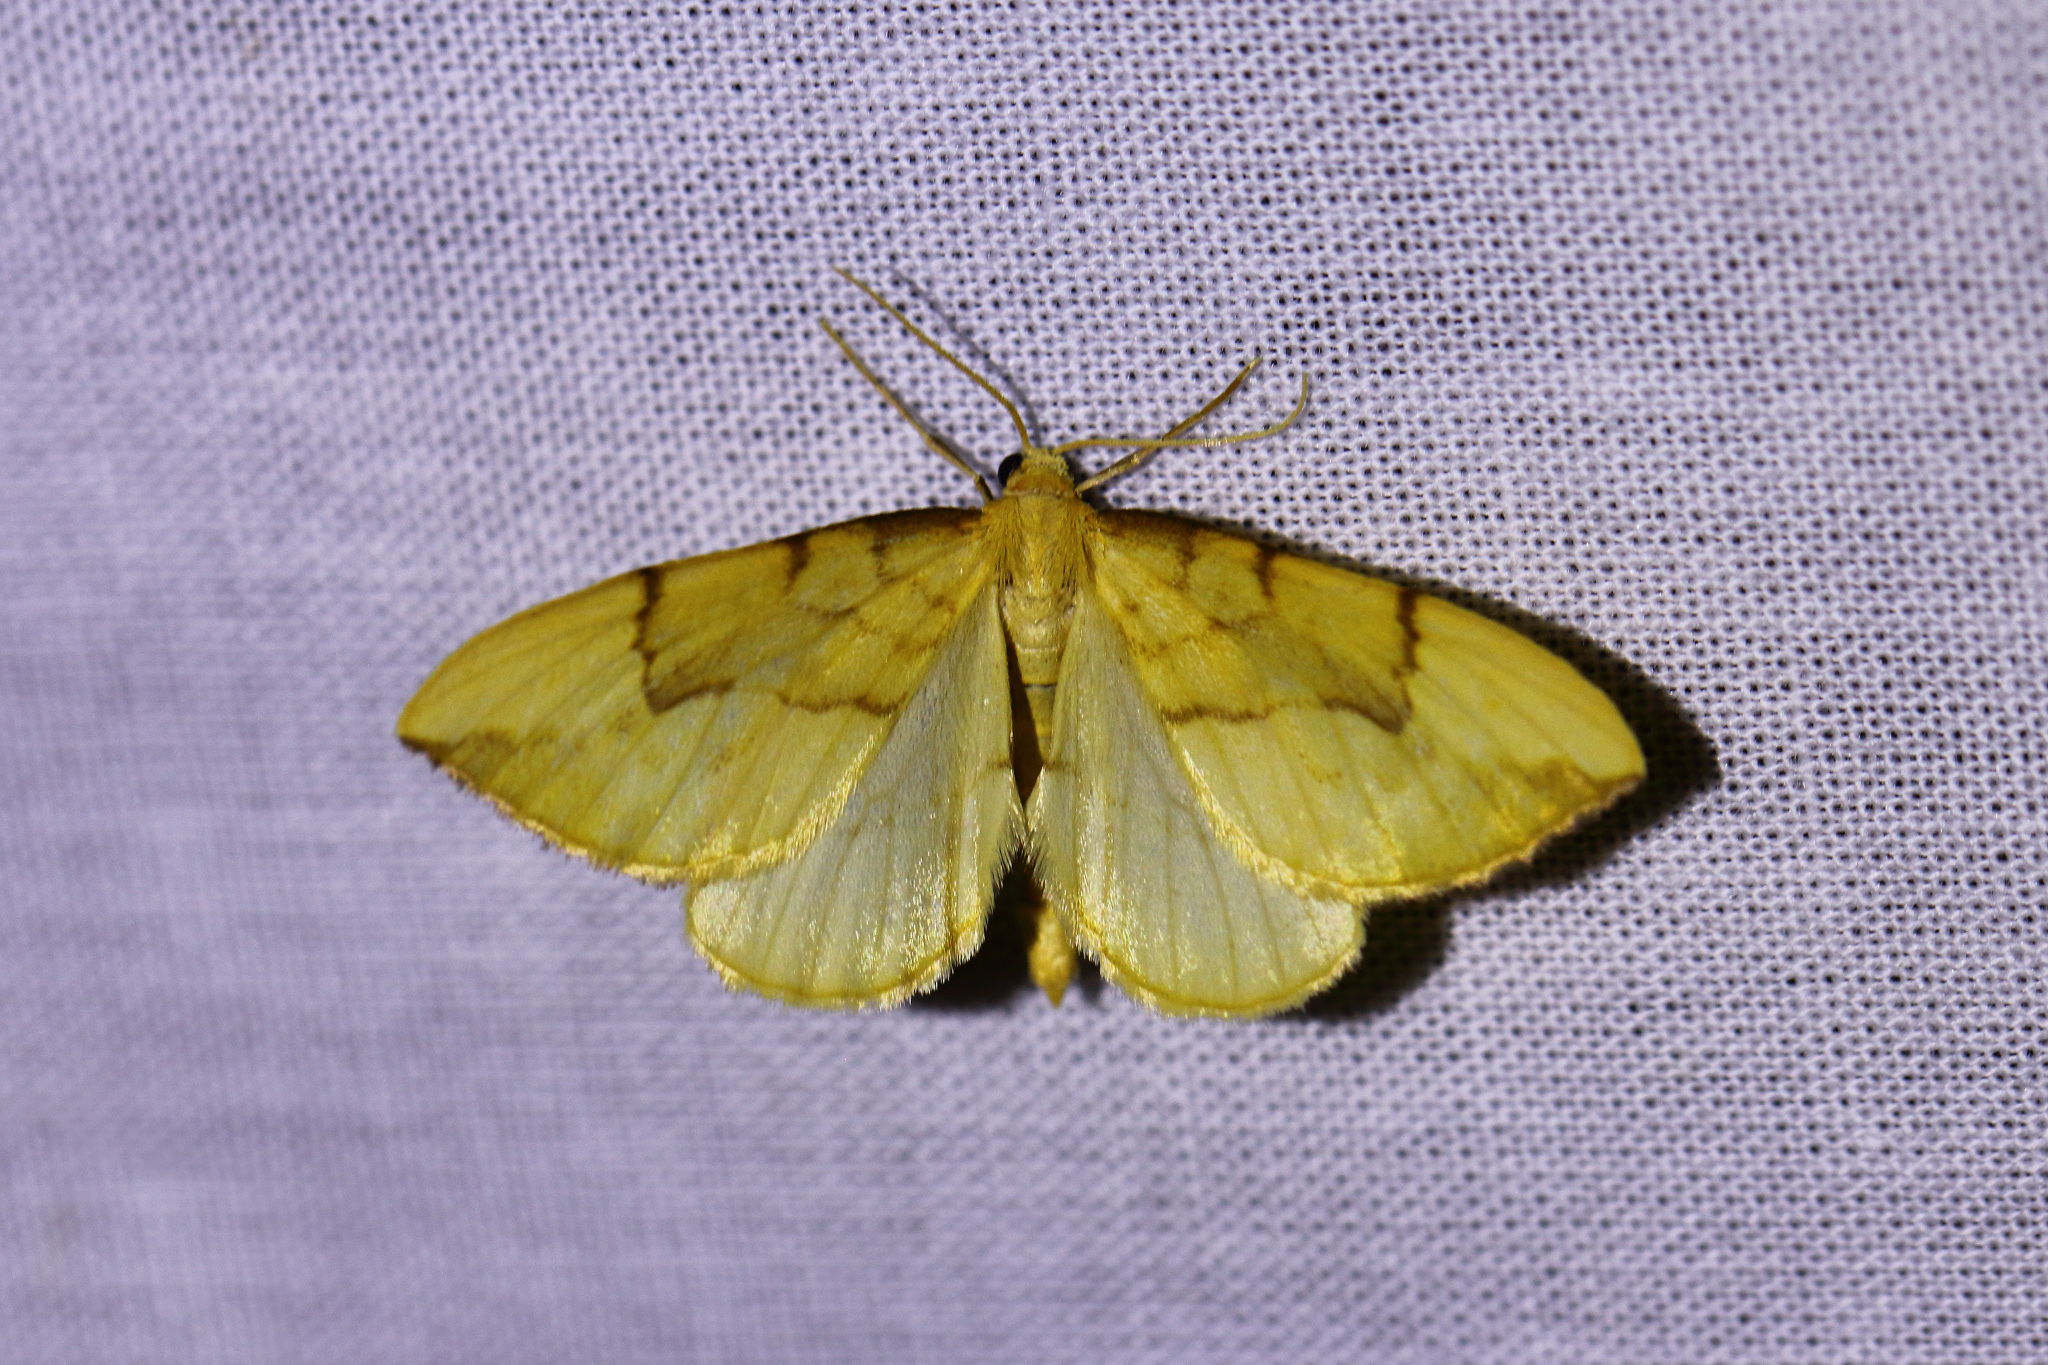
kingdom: Animalia
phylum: Arthropoda
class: Insecta
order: Lepidoptera
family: Geometridae
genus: Eulithis
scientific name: Eulithis pyraliata
